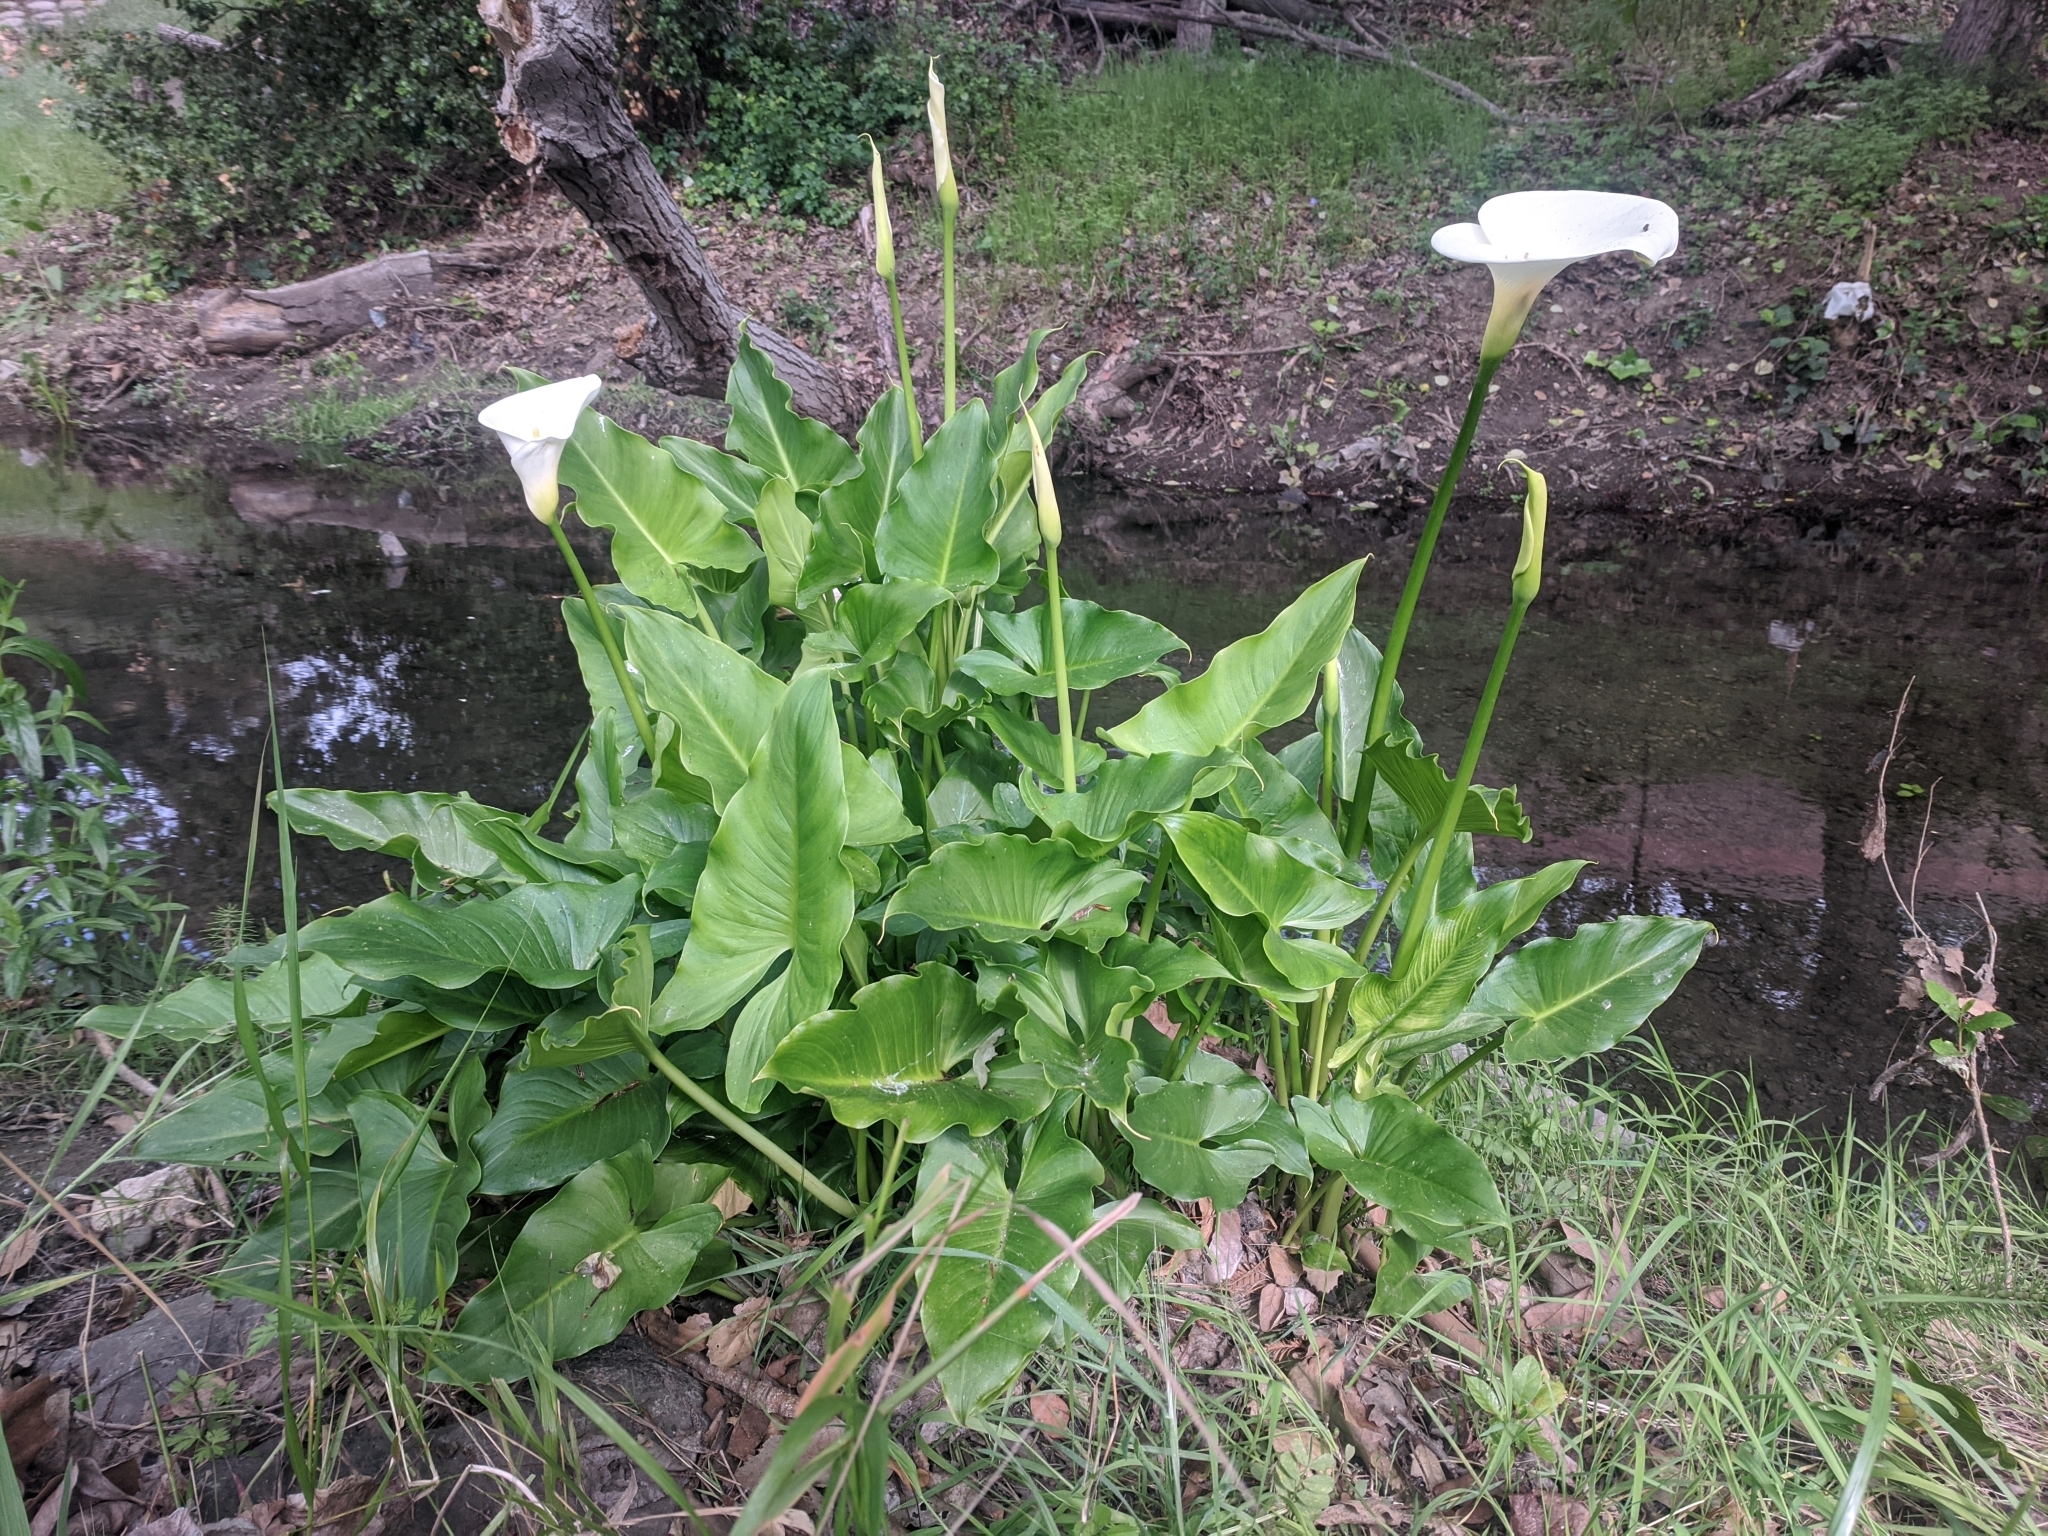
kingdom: Plantae
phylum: Tracheophyta
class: Liliopsida
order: Alismatales
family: Araceae
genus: Zantedeschia
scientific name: Zantedeschia aethiopica
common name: Altar-lily
